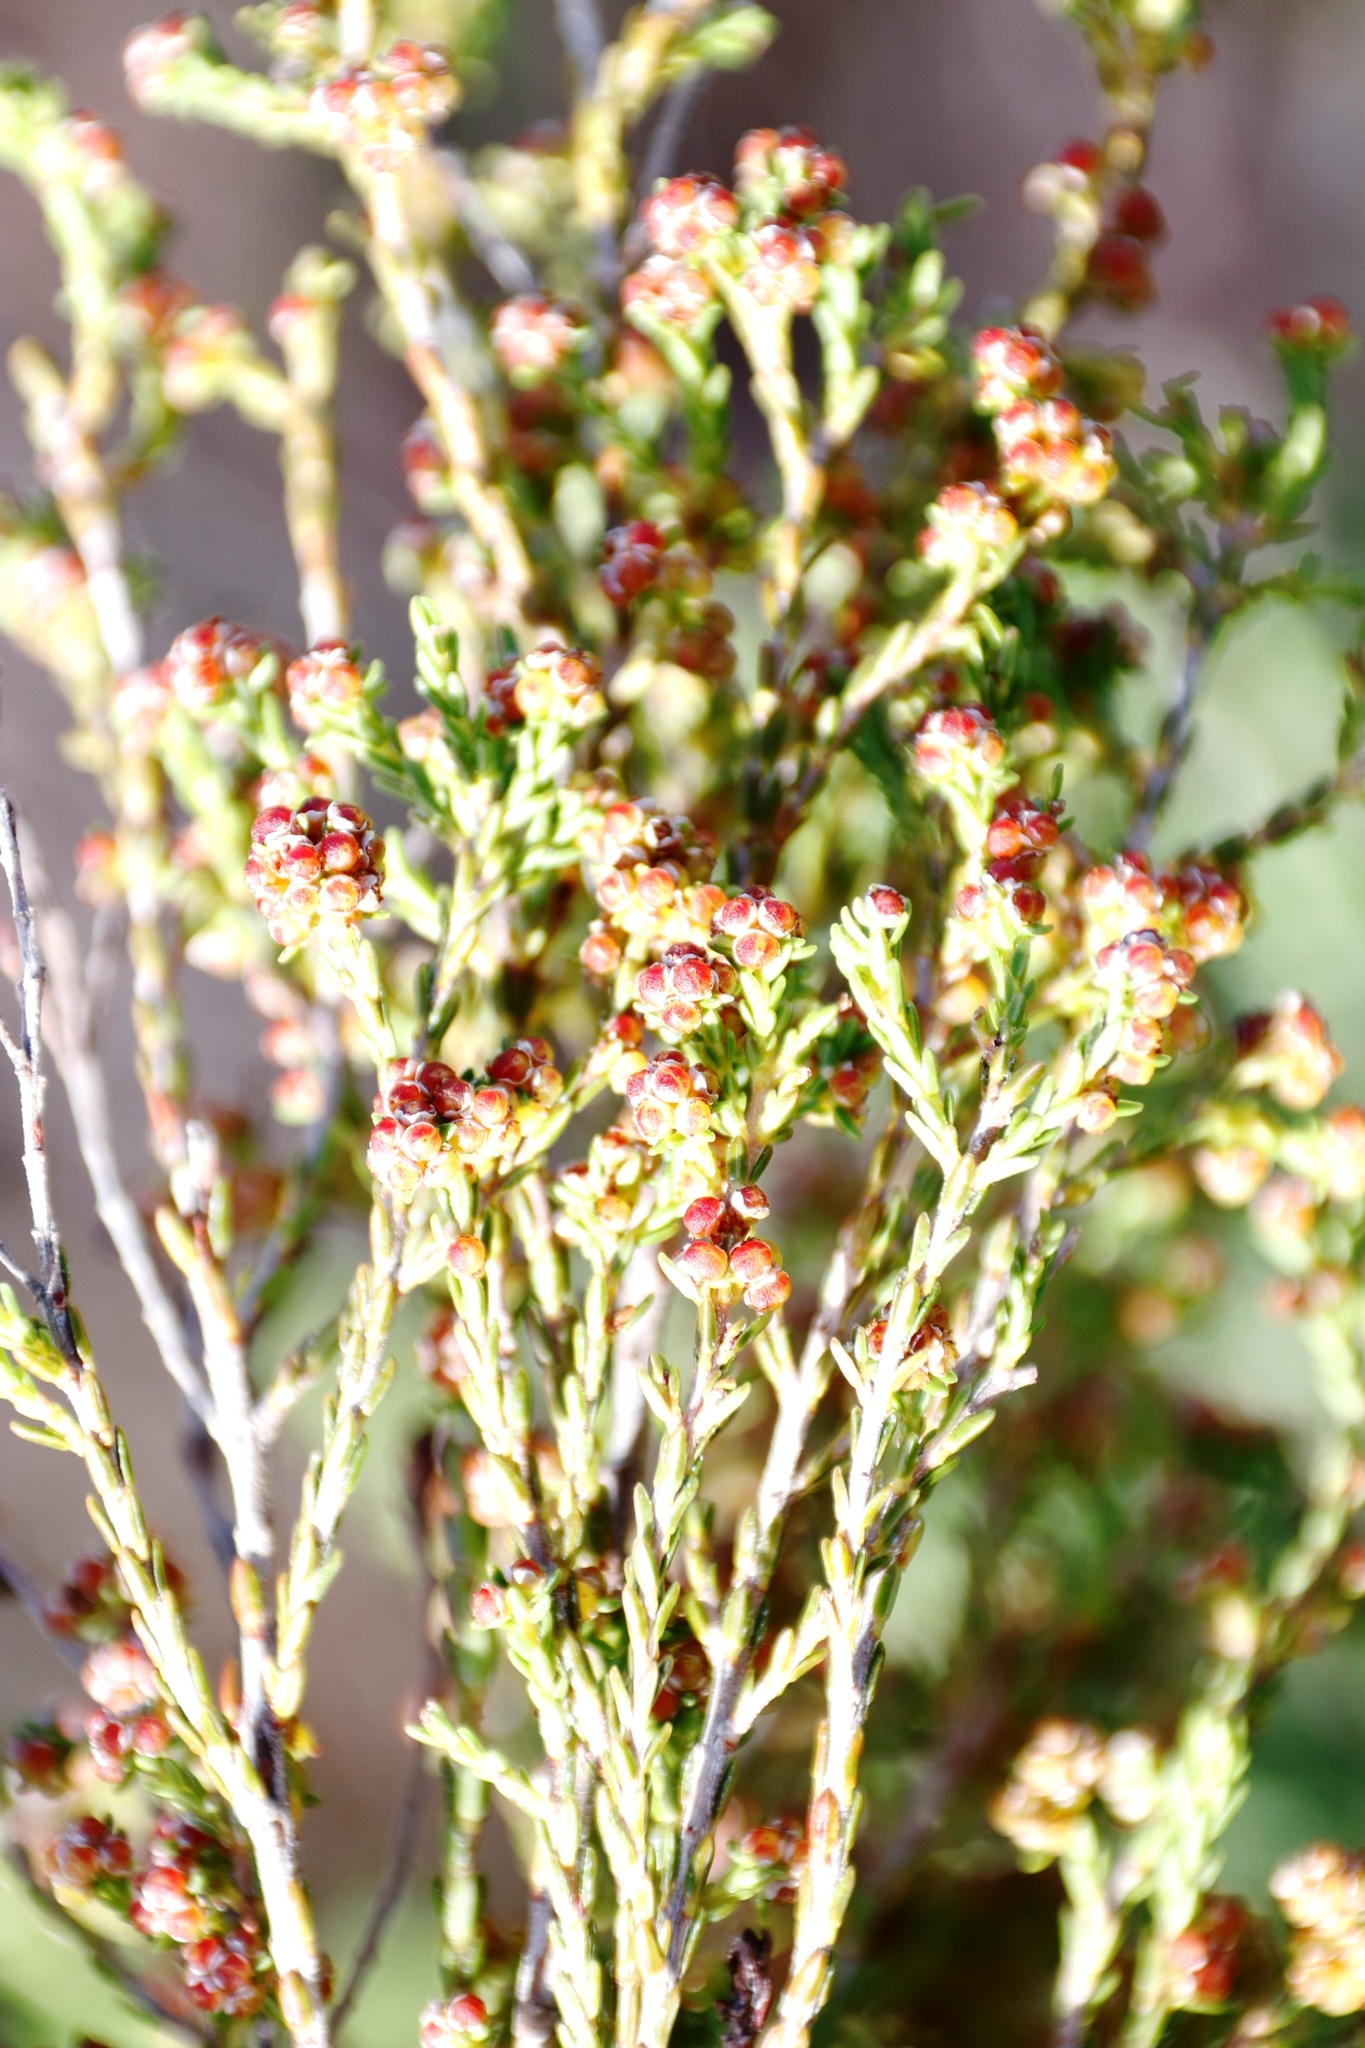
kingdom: Plantae
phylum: Tracheophyta
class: Magnoliopsida
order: Ericales
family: Ericaceae
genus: Erica
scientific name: Erica axillaris
